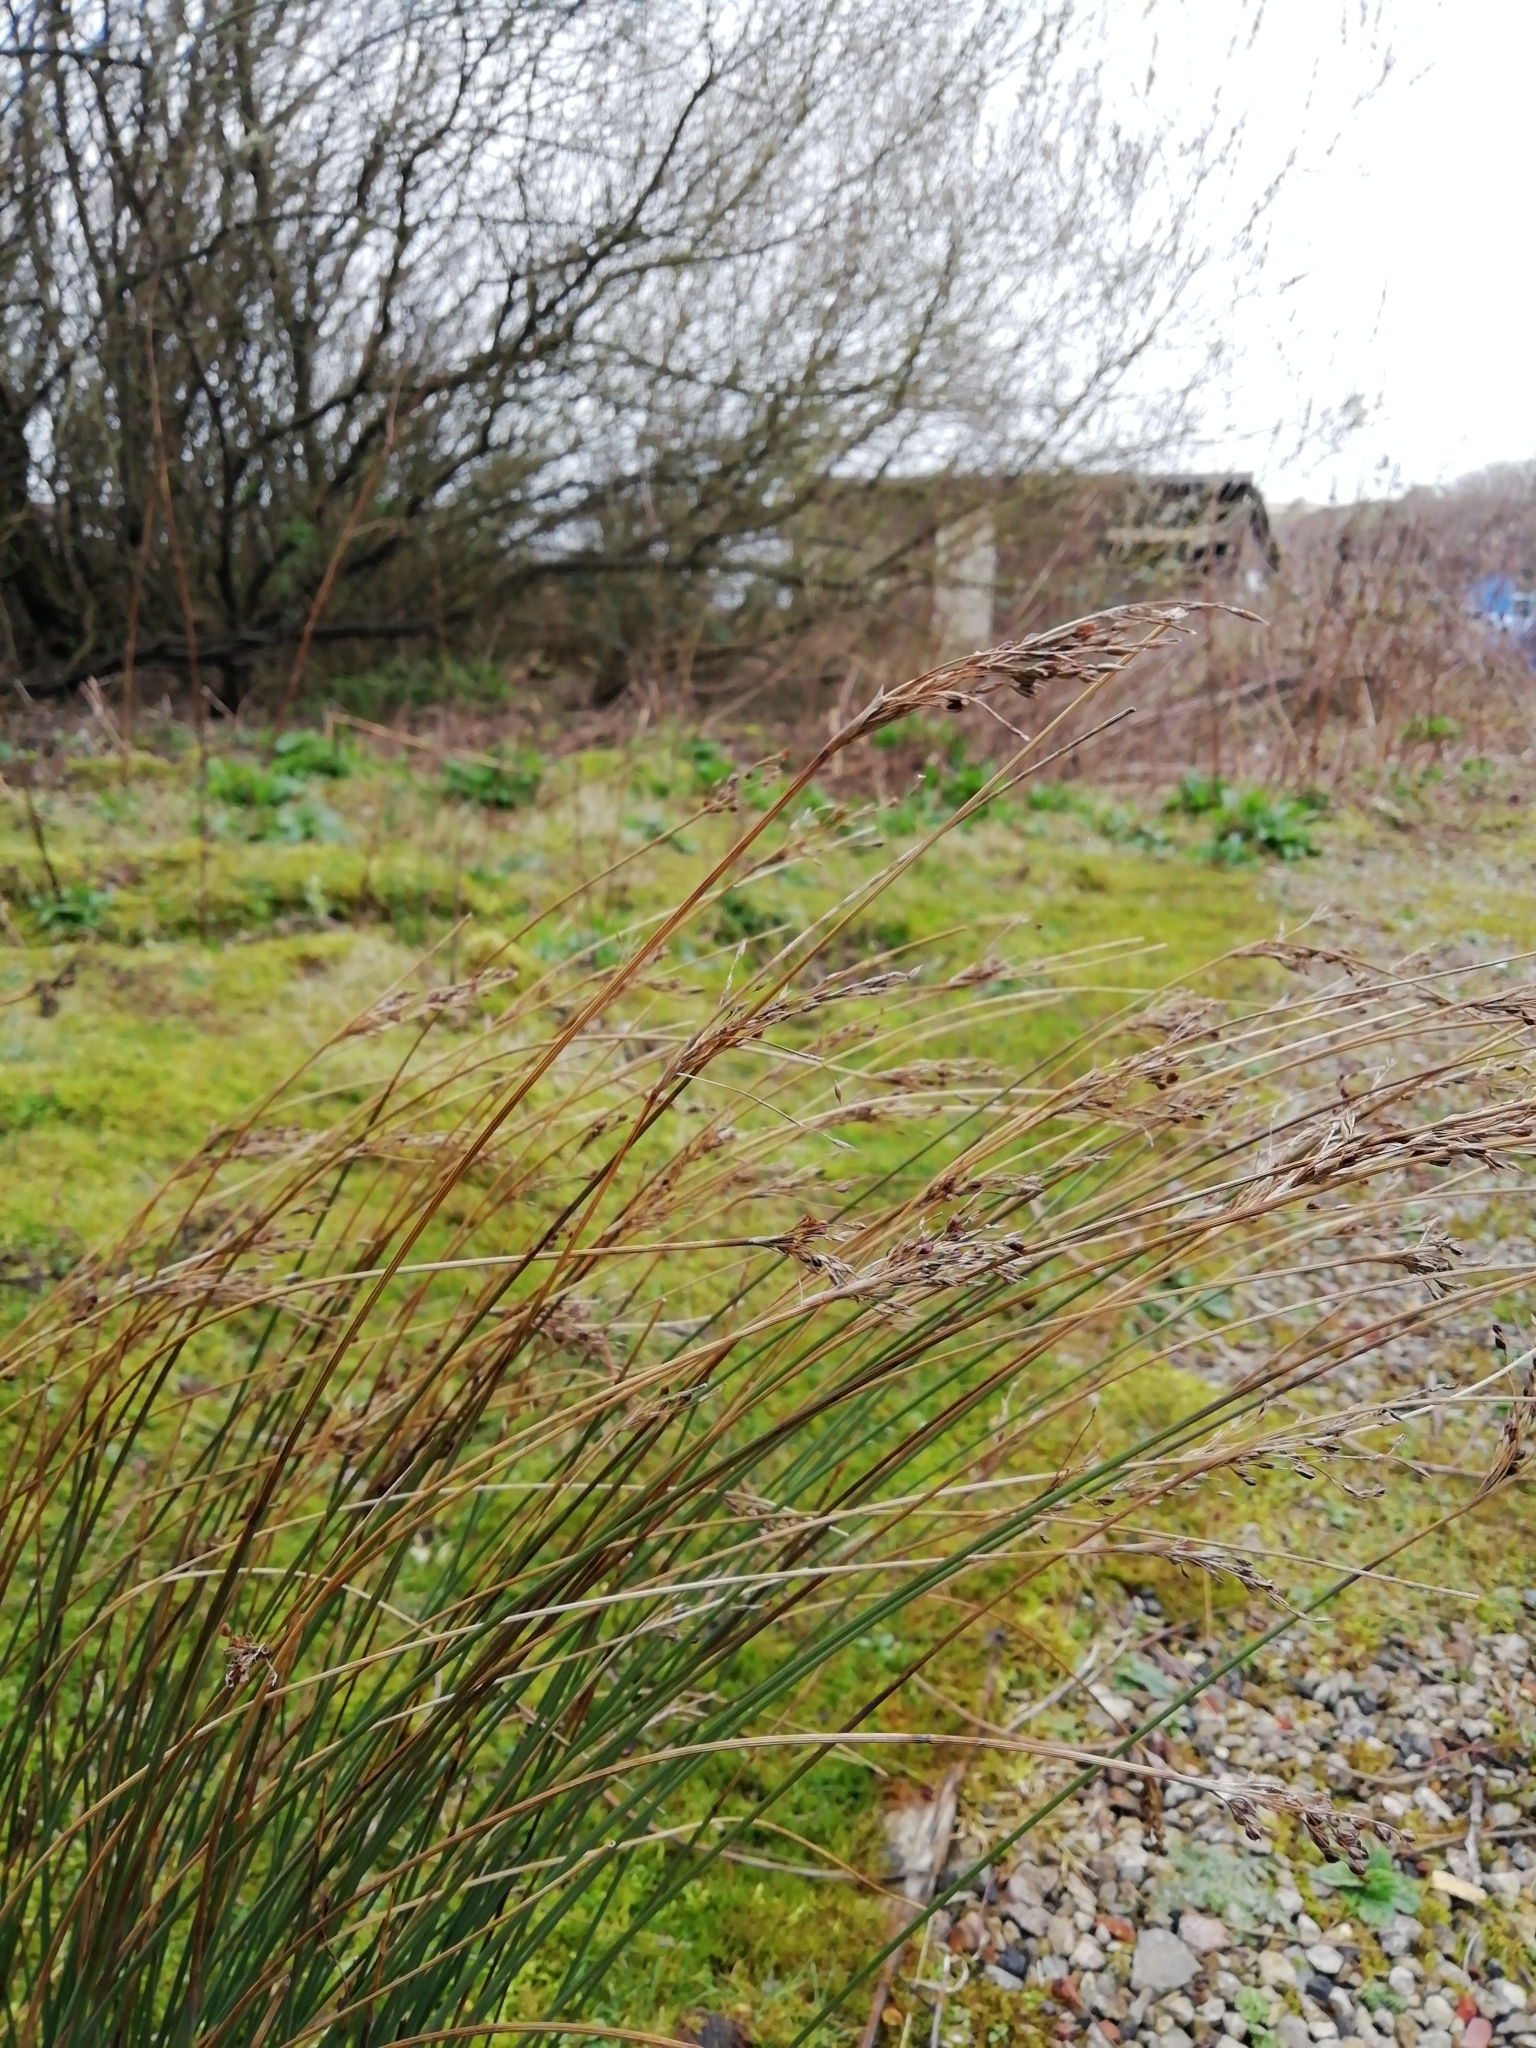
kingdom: Plantae
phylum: Tracheophyta
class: Liliopsida
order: Poales
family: Juncaceae
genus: Juncus
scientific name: Juncus inflexus
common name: Hard rush
